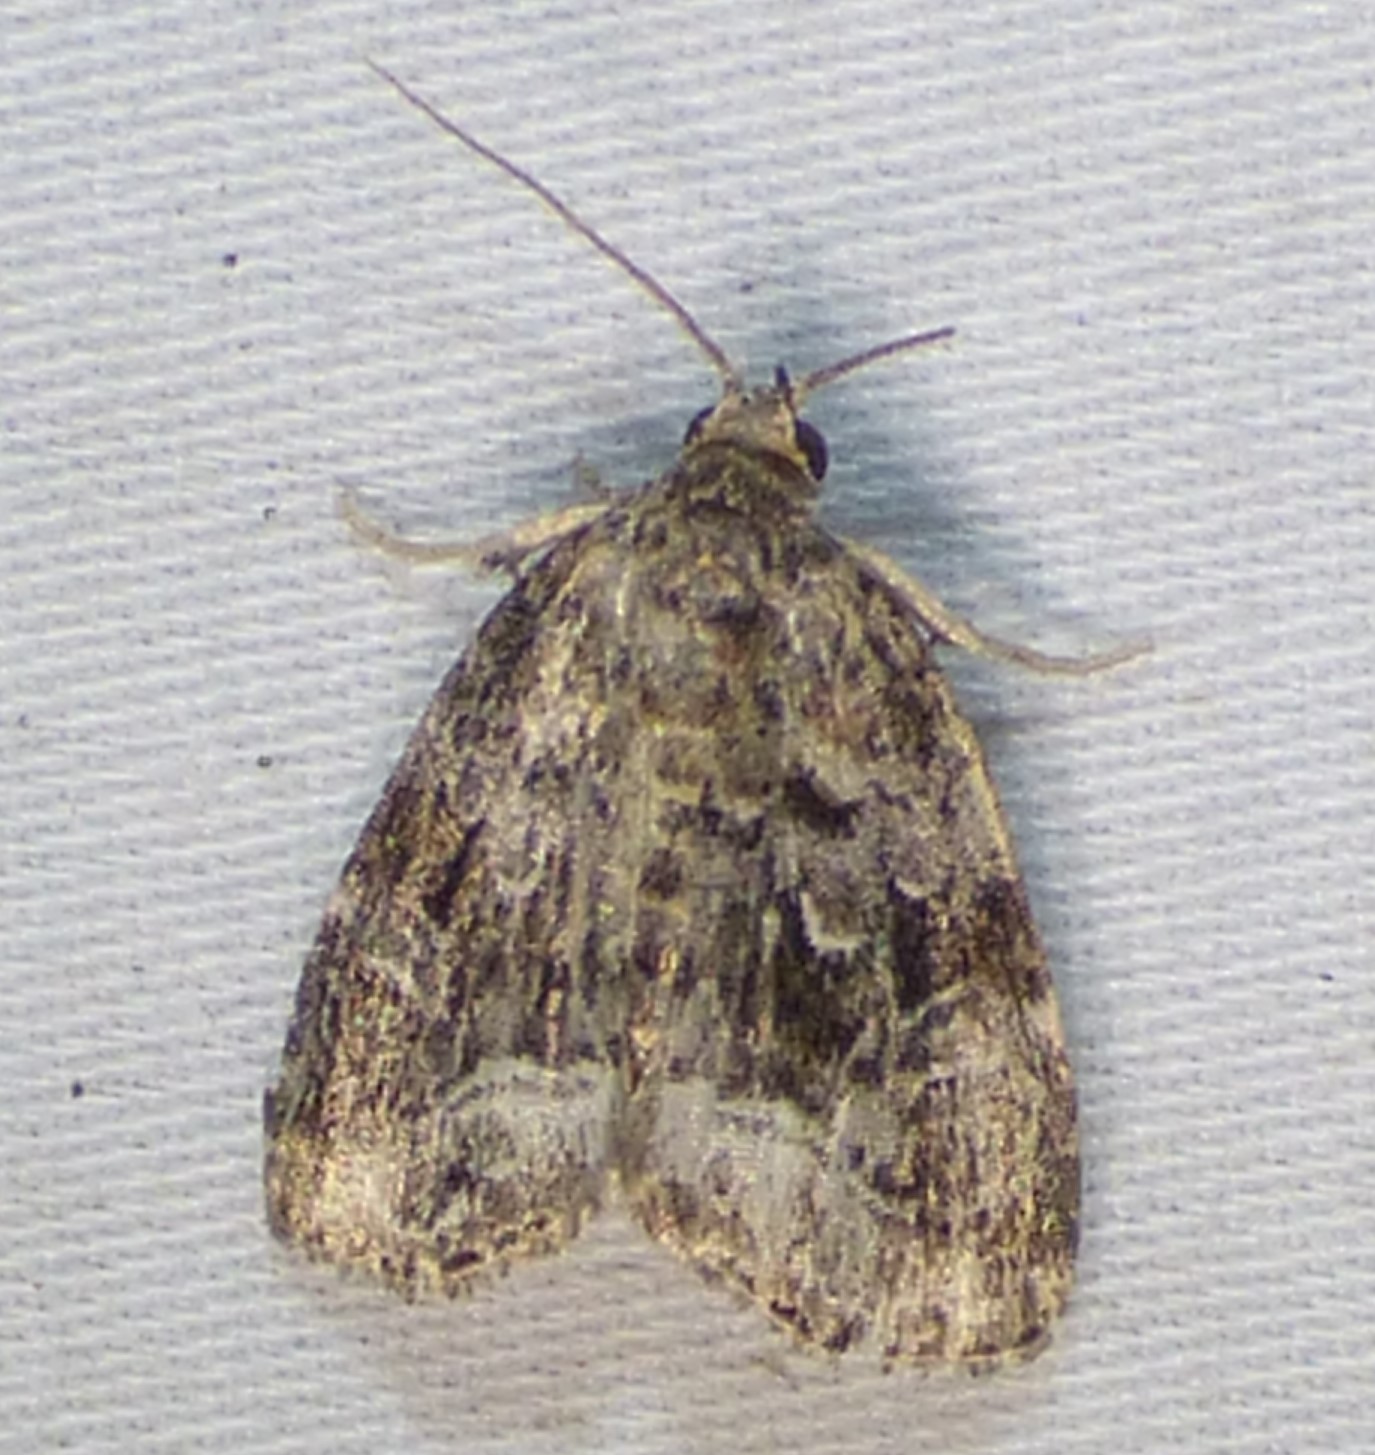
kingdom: Animalia
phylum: Arthropoda
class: Insecta
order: Lepidoptera
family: Noctuidae
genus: Protodeltote
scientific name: Protodeltote muscosula
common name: Large mossy glyph
